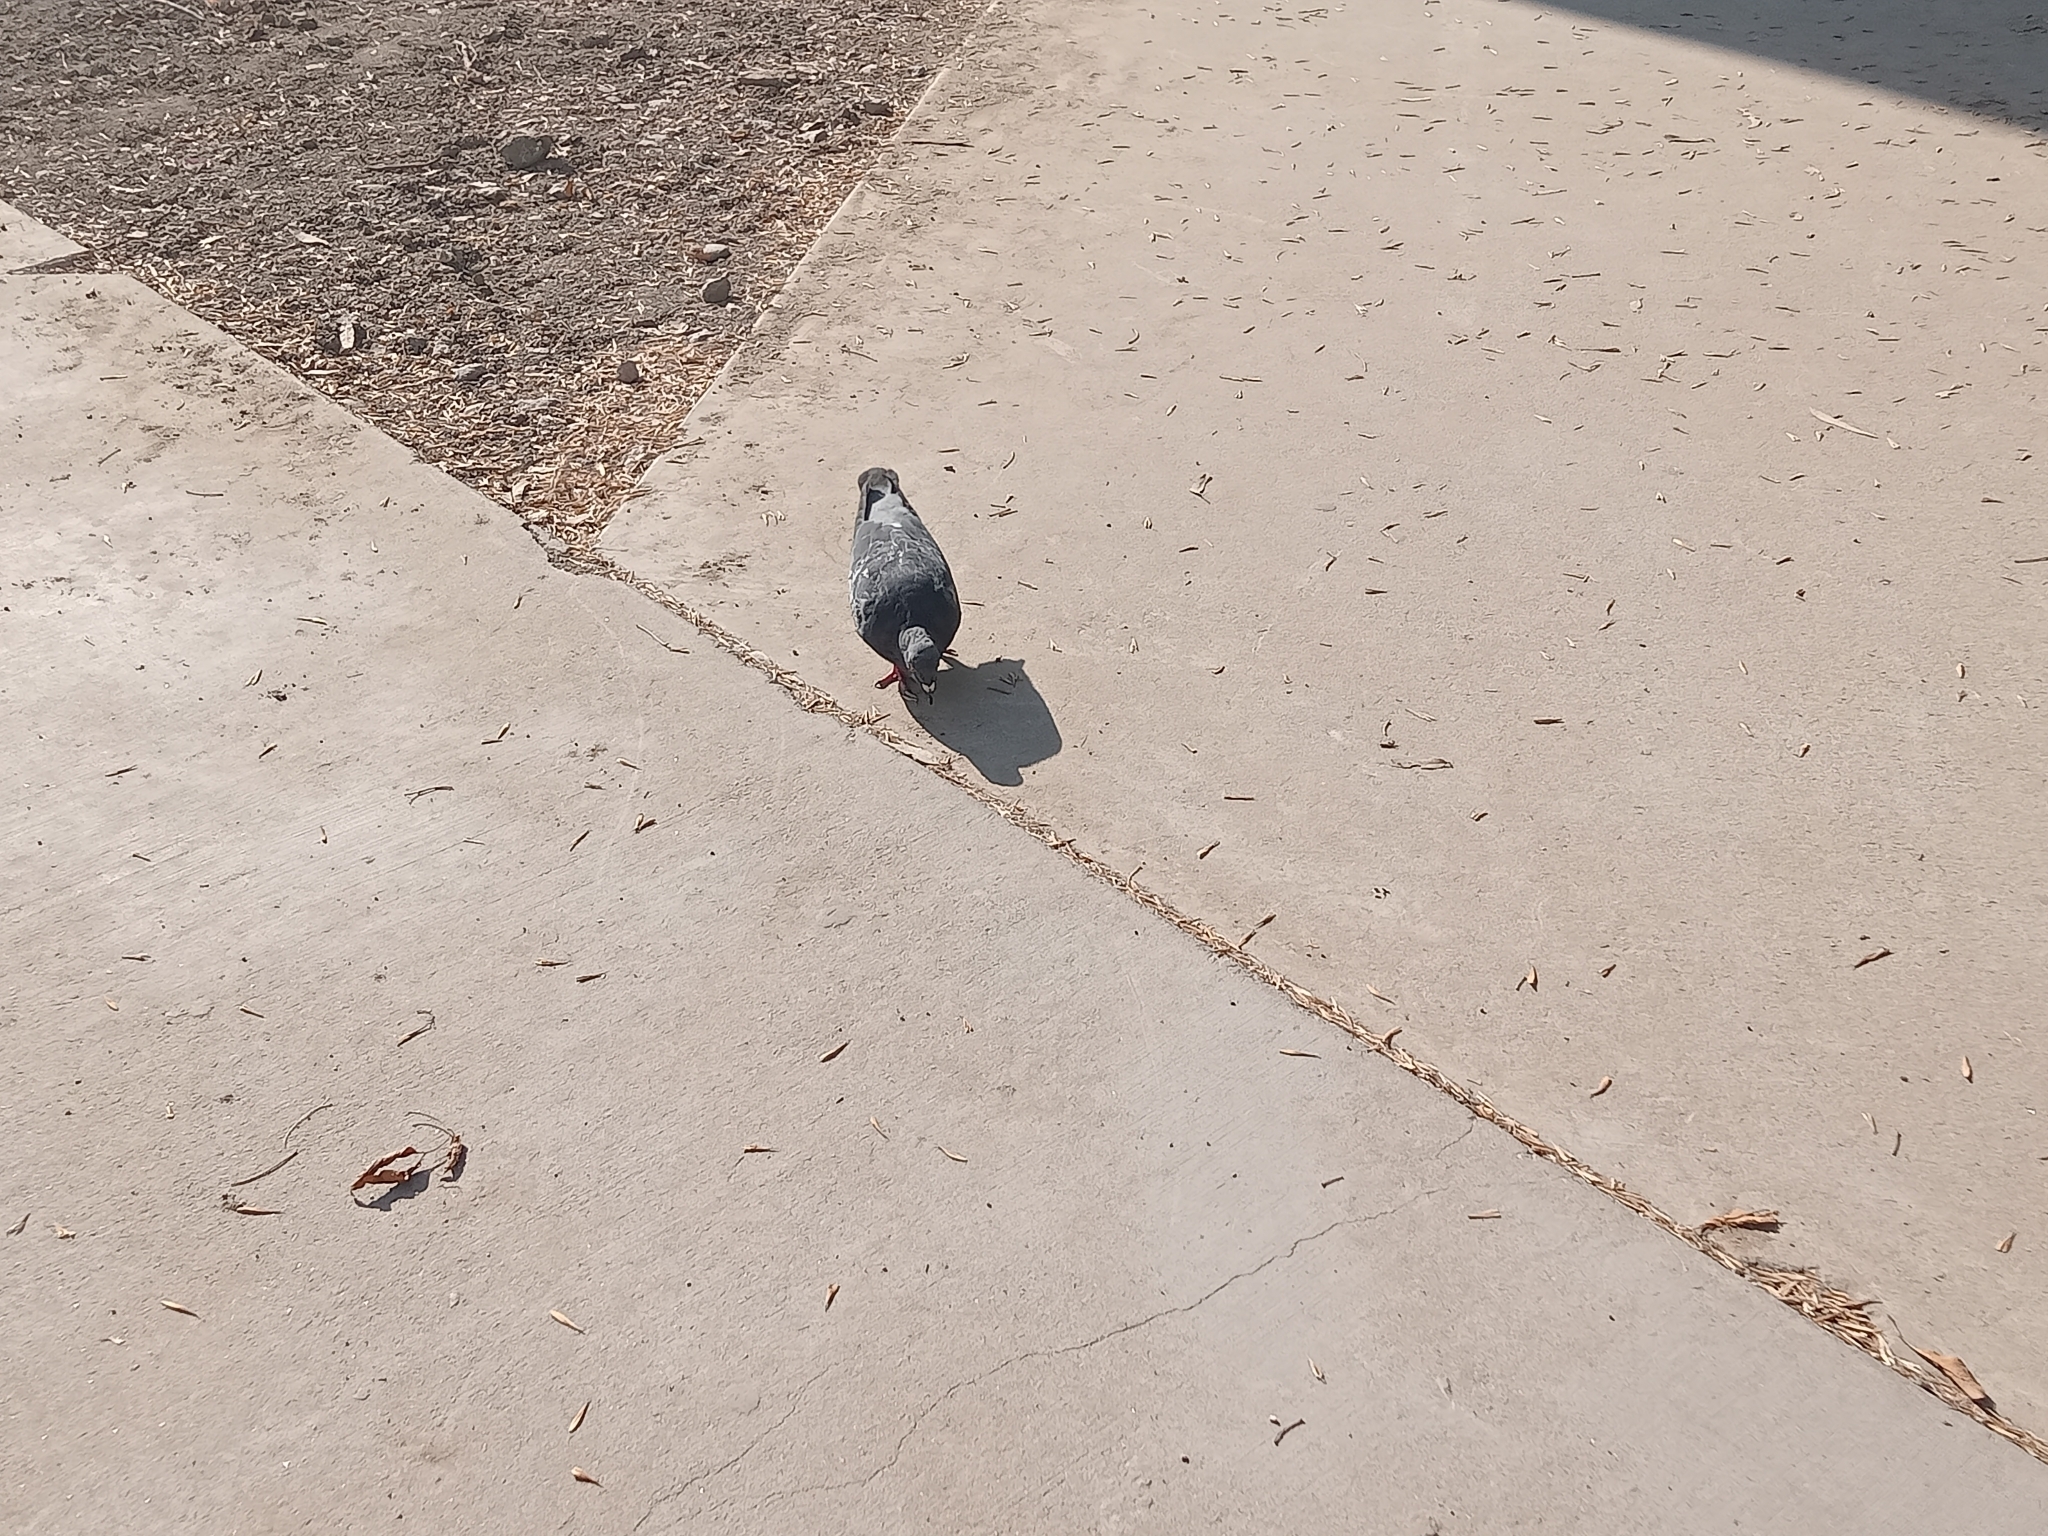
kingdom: Animalia
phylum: Chordata
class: Aves
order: Columbiformes
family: Columbidae
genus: Columba
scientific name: Columba livia
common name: Rock pigeon
